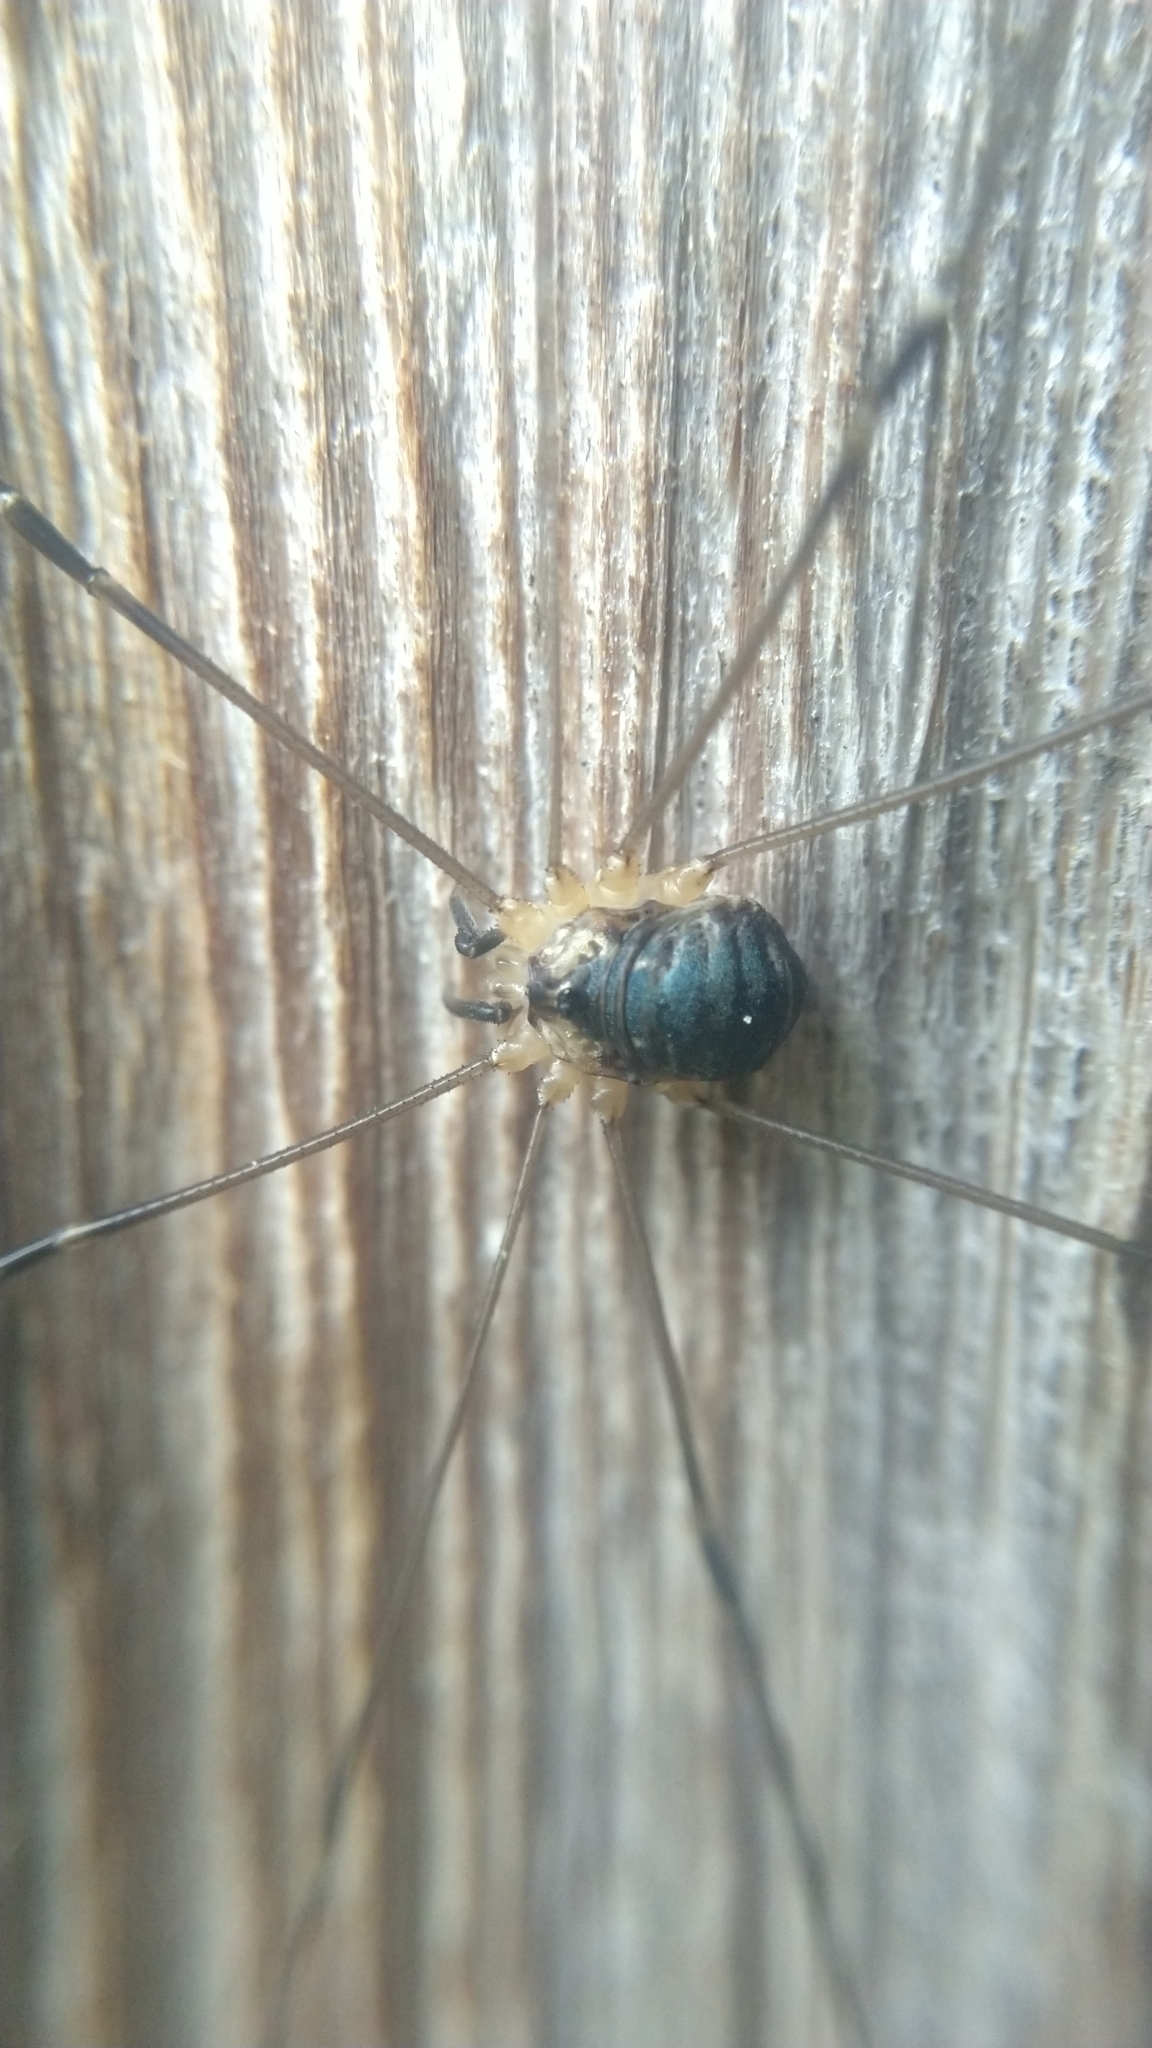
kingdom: Animalia
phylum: Arthropoda
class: Arachnida
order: Opiliones
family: Sclerosomatidae
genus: Leiobunum
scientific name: Leiobunum gracile
